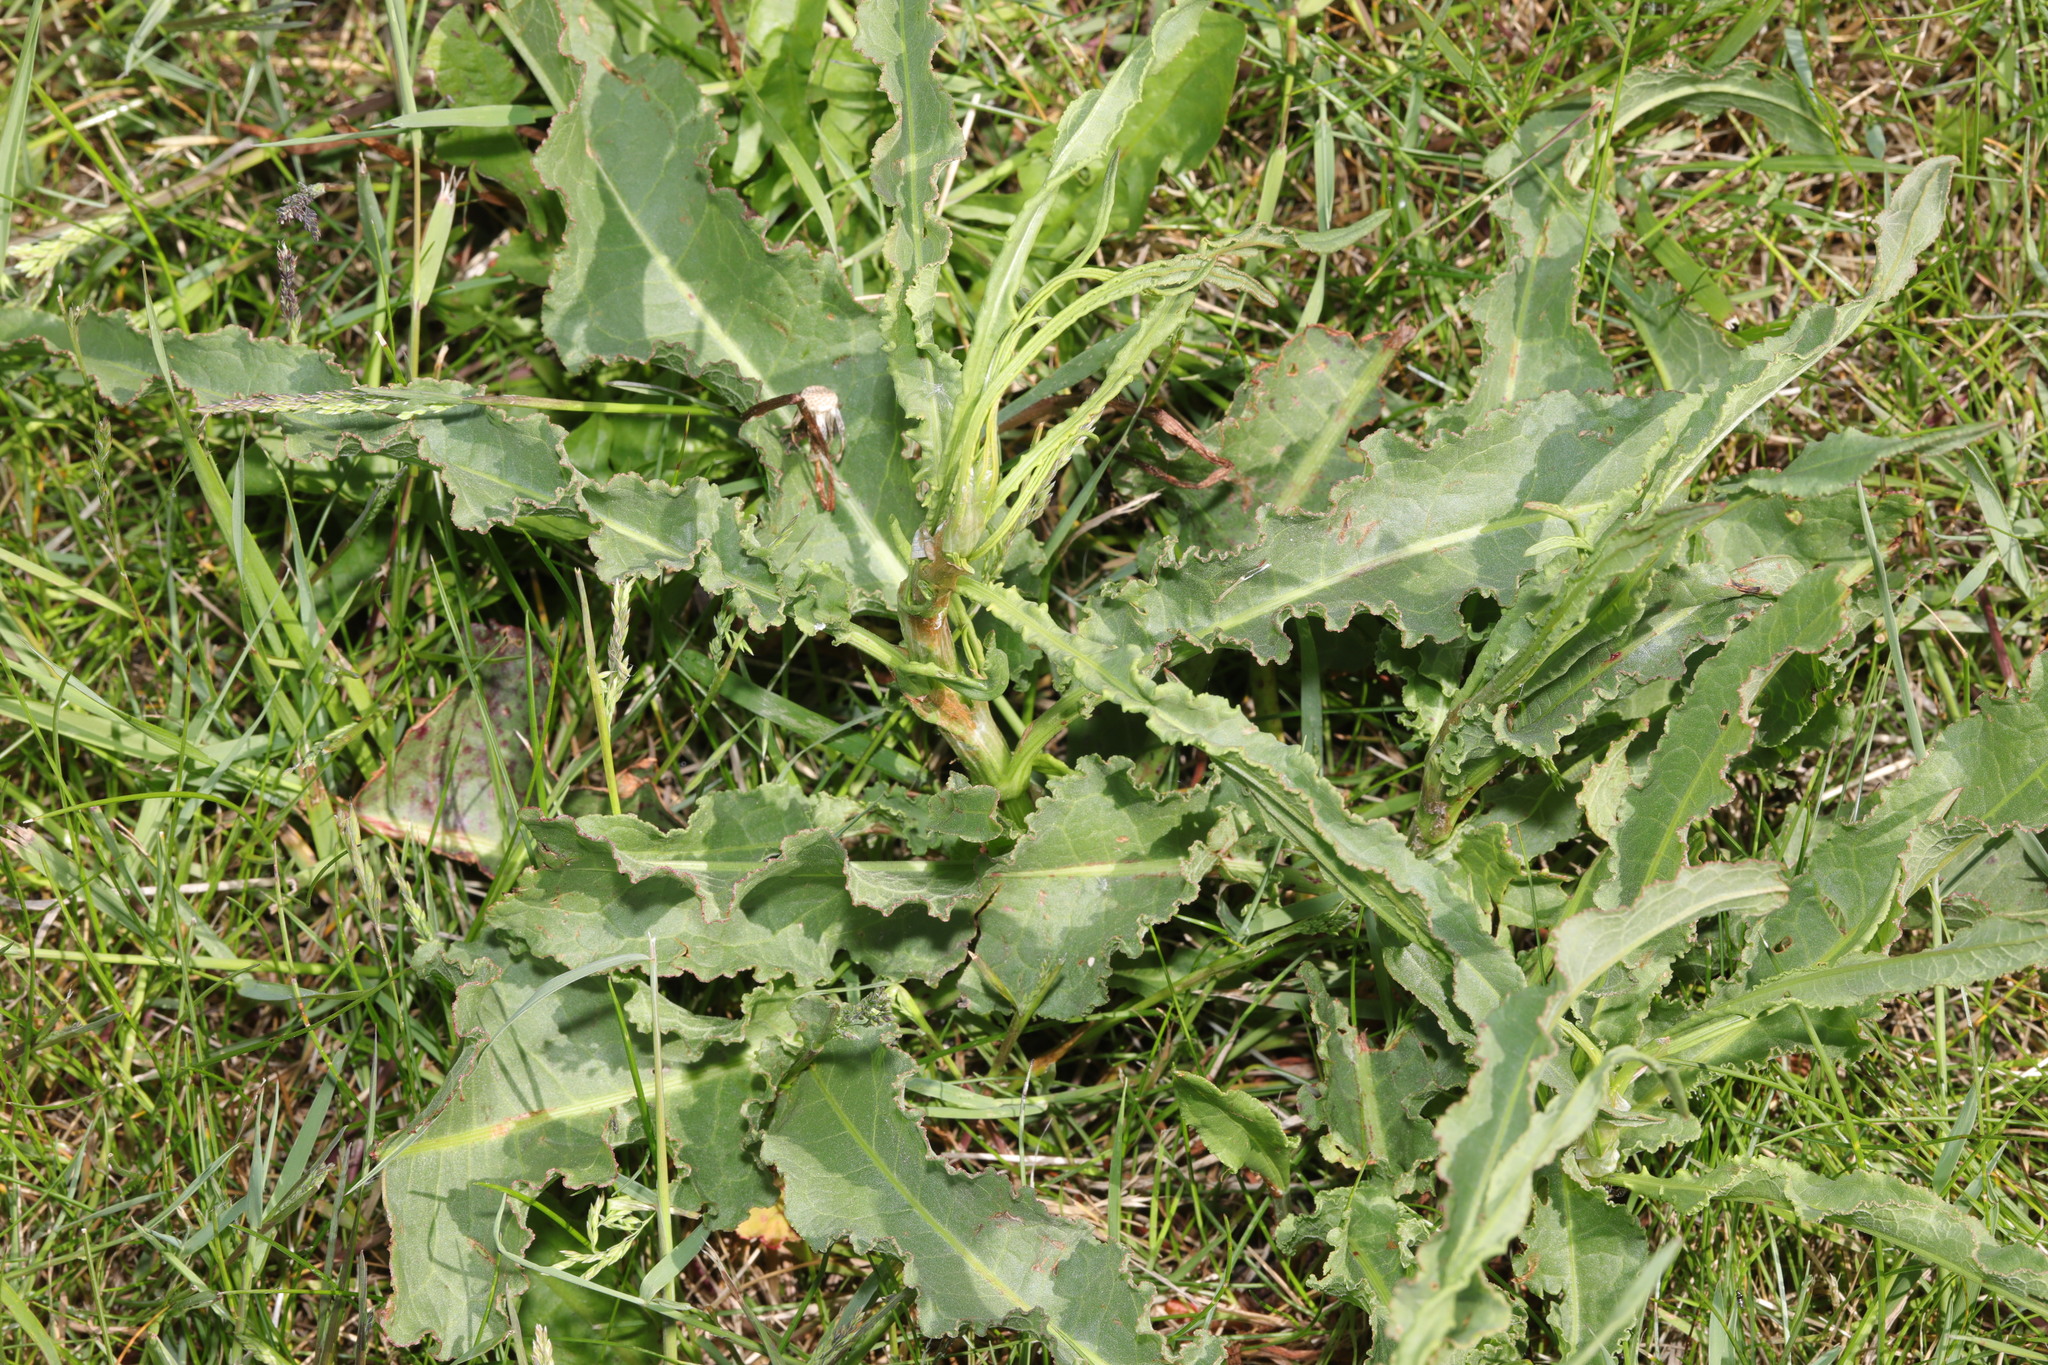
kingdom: Plantae
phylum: Tracheophyta
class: Magnoliopsida
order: Caryophyllales
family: Polygonaceae
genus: Rumex
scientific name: Rumex crispus
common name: Curled dock
